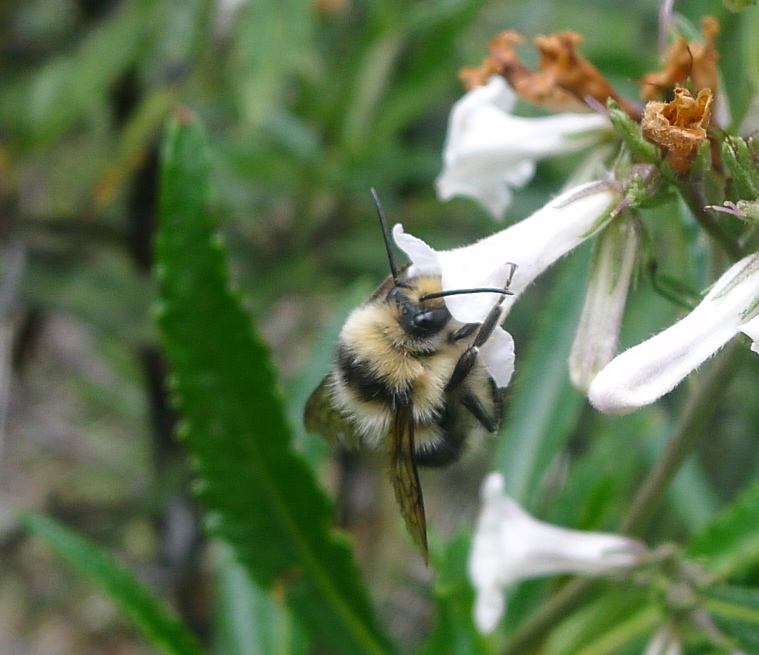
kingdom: Animalia
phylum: Arthropoda
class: Insecta
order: Hymenoptera
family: Apidae
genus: Bombus
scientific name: Bombus melanopygus
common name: Black tail bumble bee
